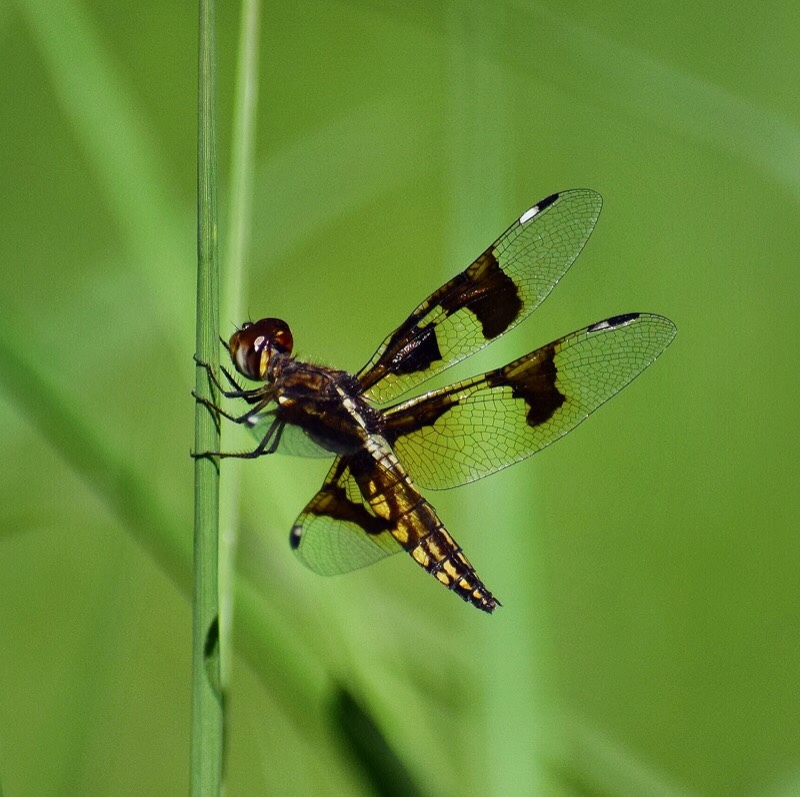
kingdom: Animalia
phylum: Arthropoda
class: Insecta
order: Odonata
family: Libellulidae
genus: Palpopleura
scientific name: Palpopleura lucia
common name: Lucia widow
